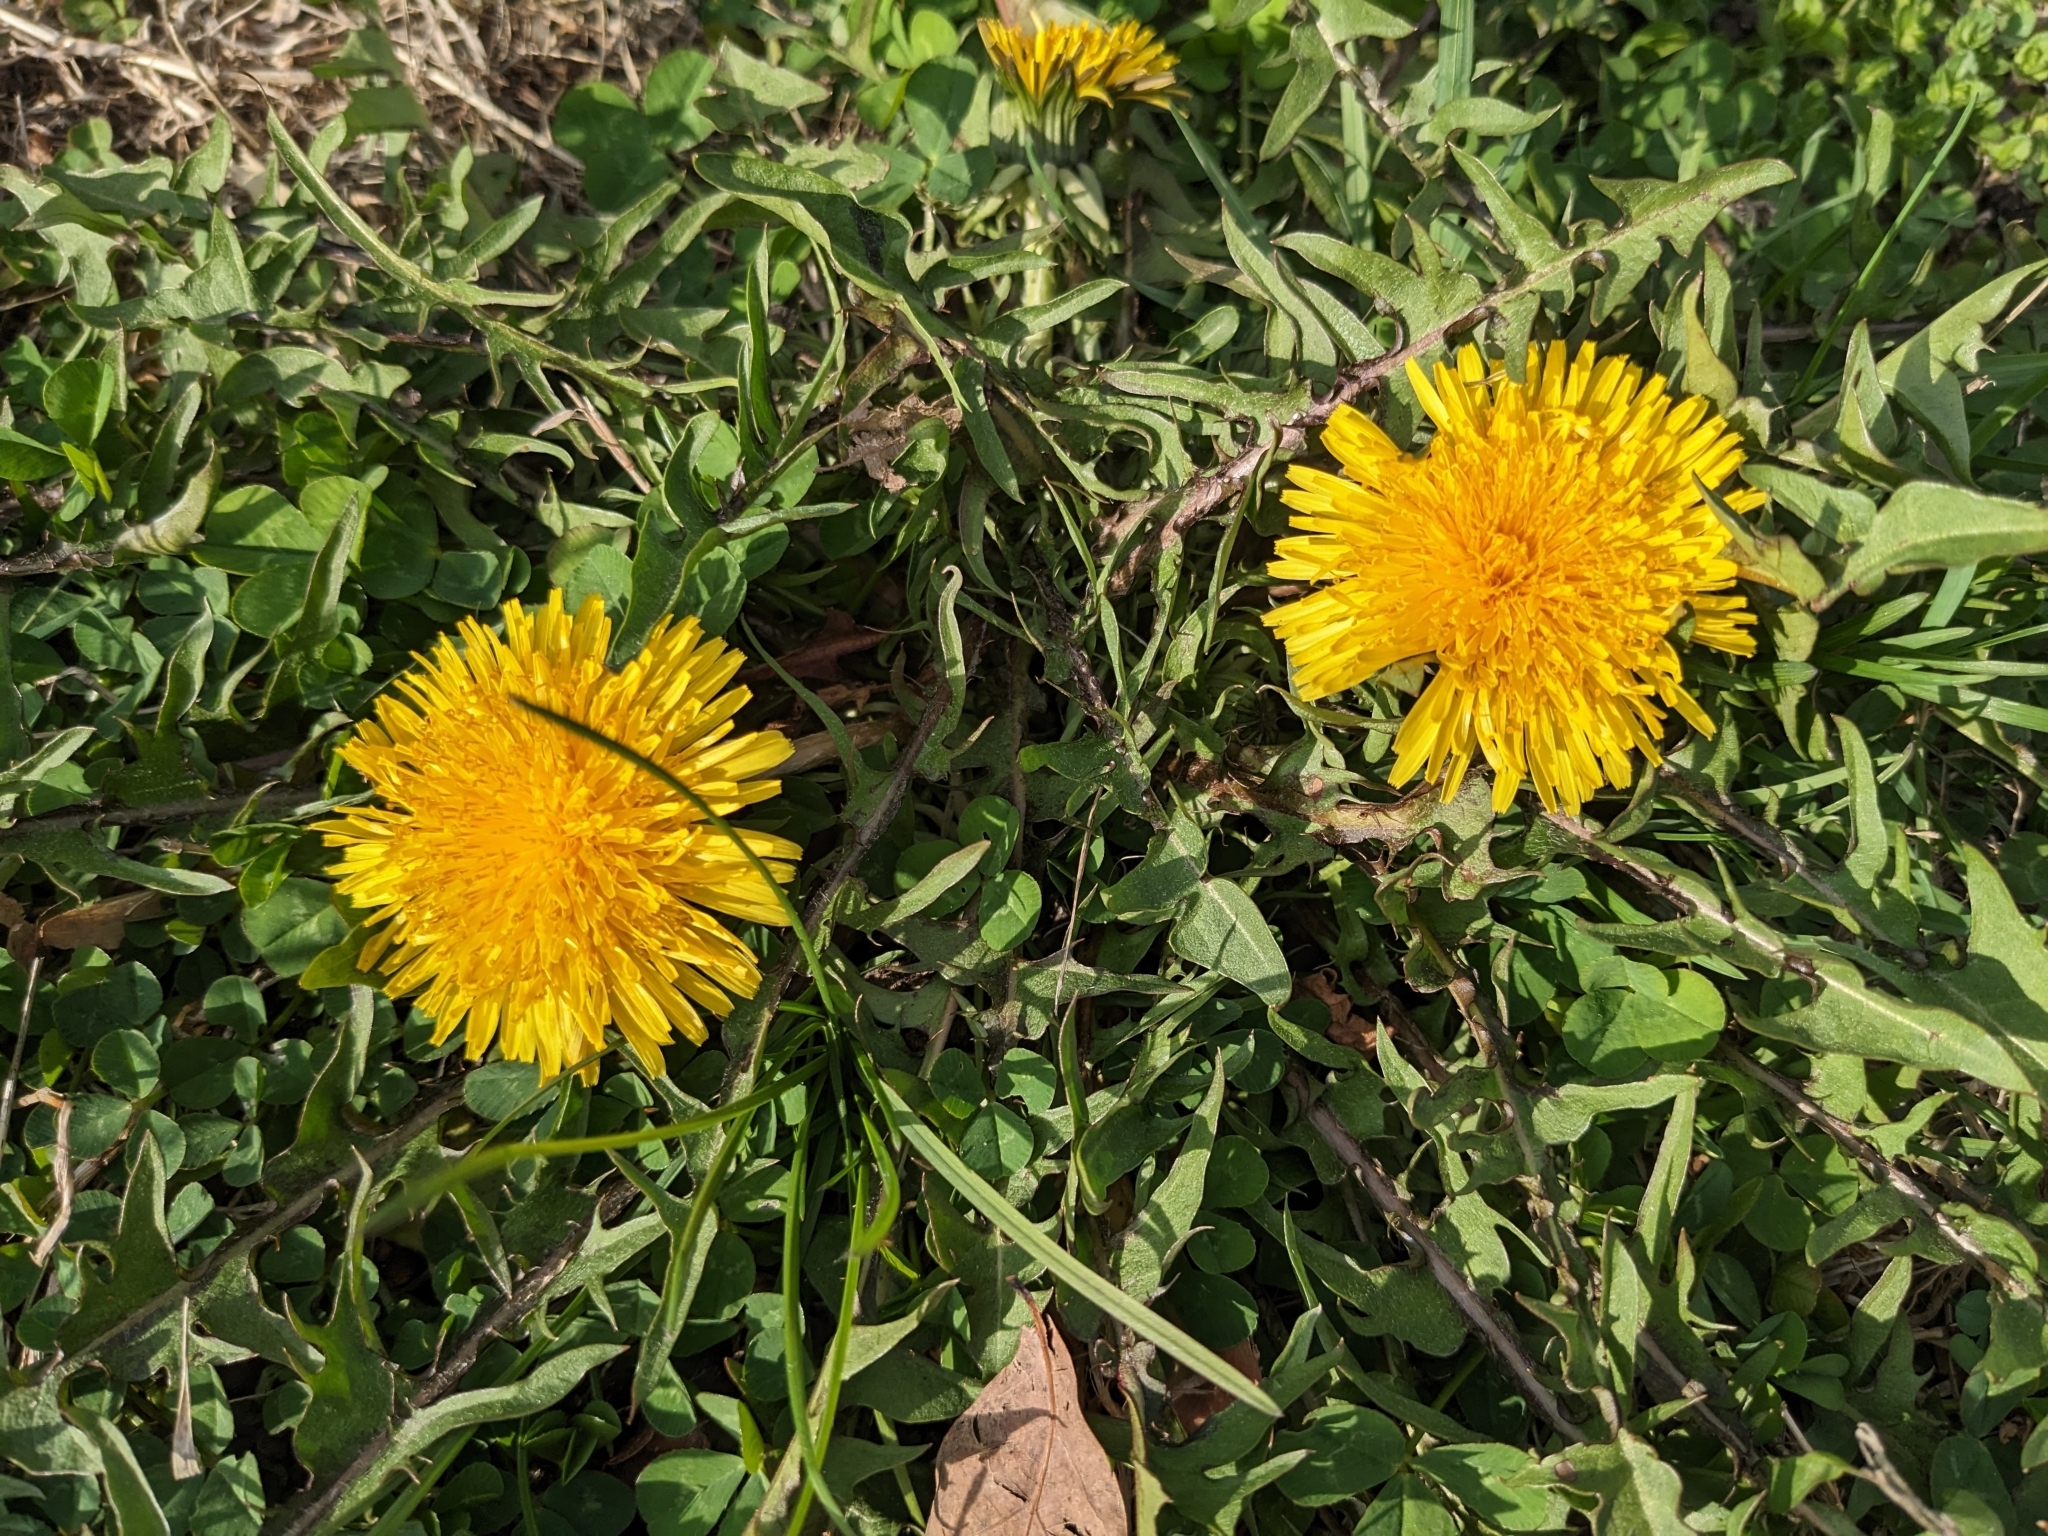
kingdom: Plantae
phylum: Tracheophyta
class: Magnoliopsida
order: Asterales
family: Asteraceae
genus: Taraxacum
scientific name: Taraxacum officinale
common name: Common dandelion
